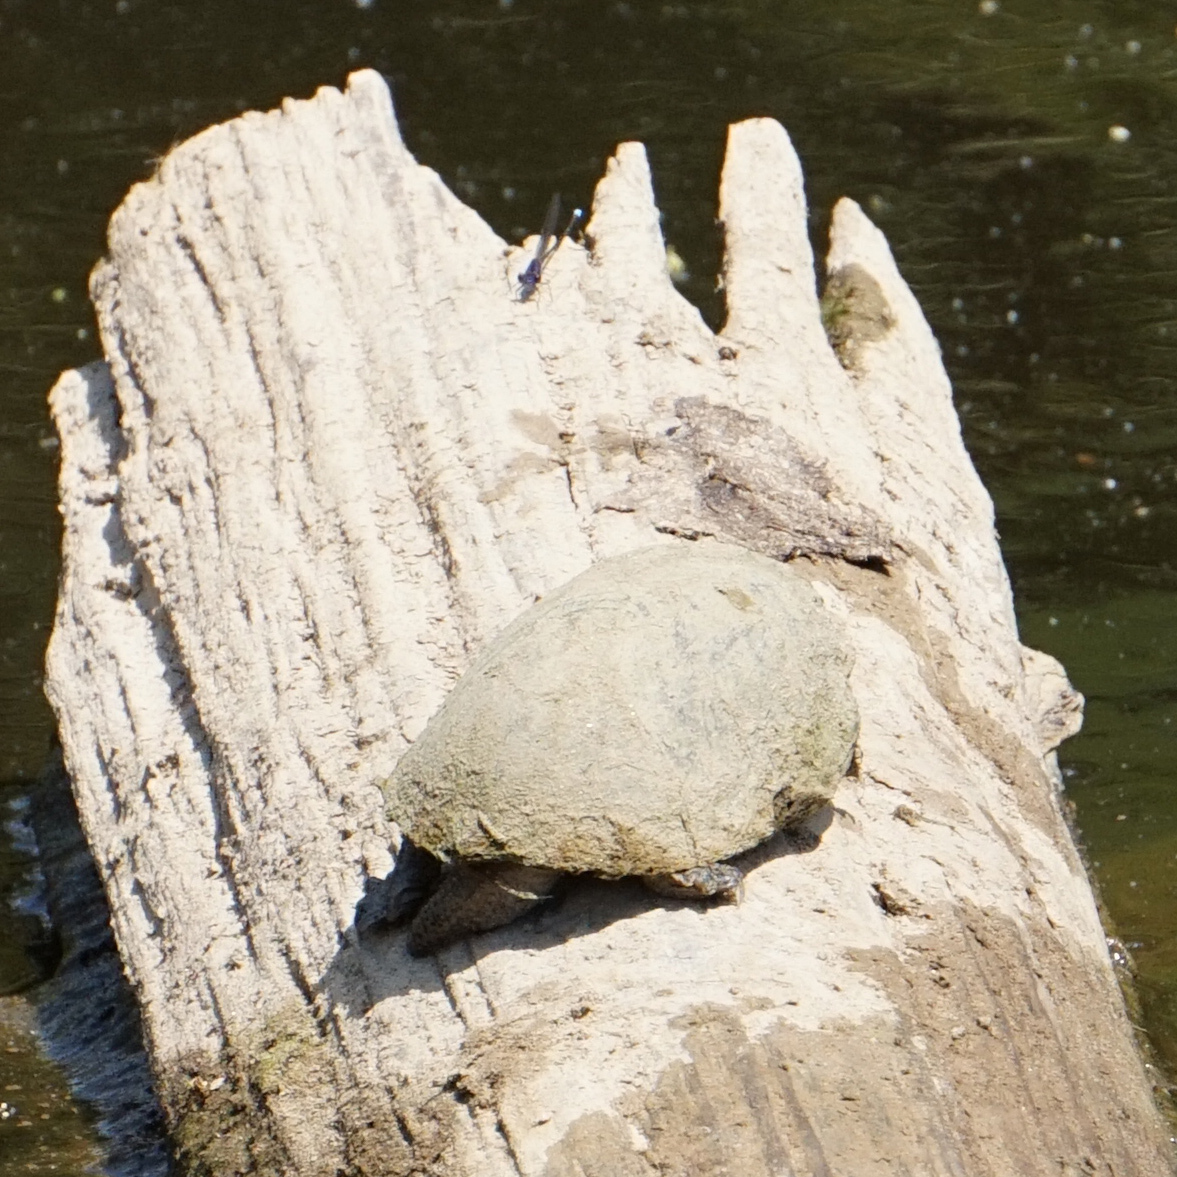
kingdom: Animalia
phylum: Chordata
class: Testudines
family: Kinosternidae
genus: Sternotherus
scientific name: Sternotherus odoratus
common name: Common musk turtle
